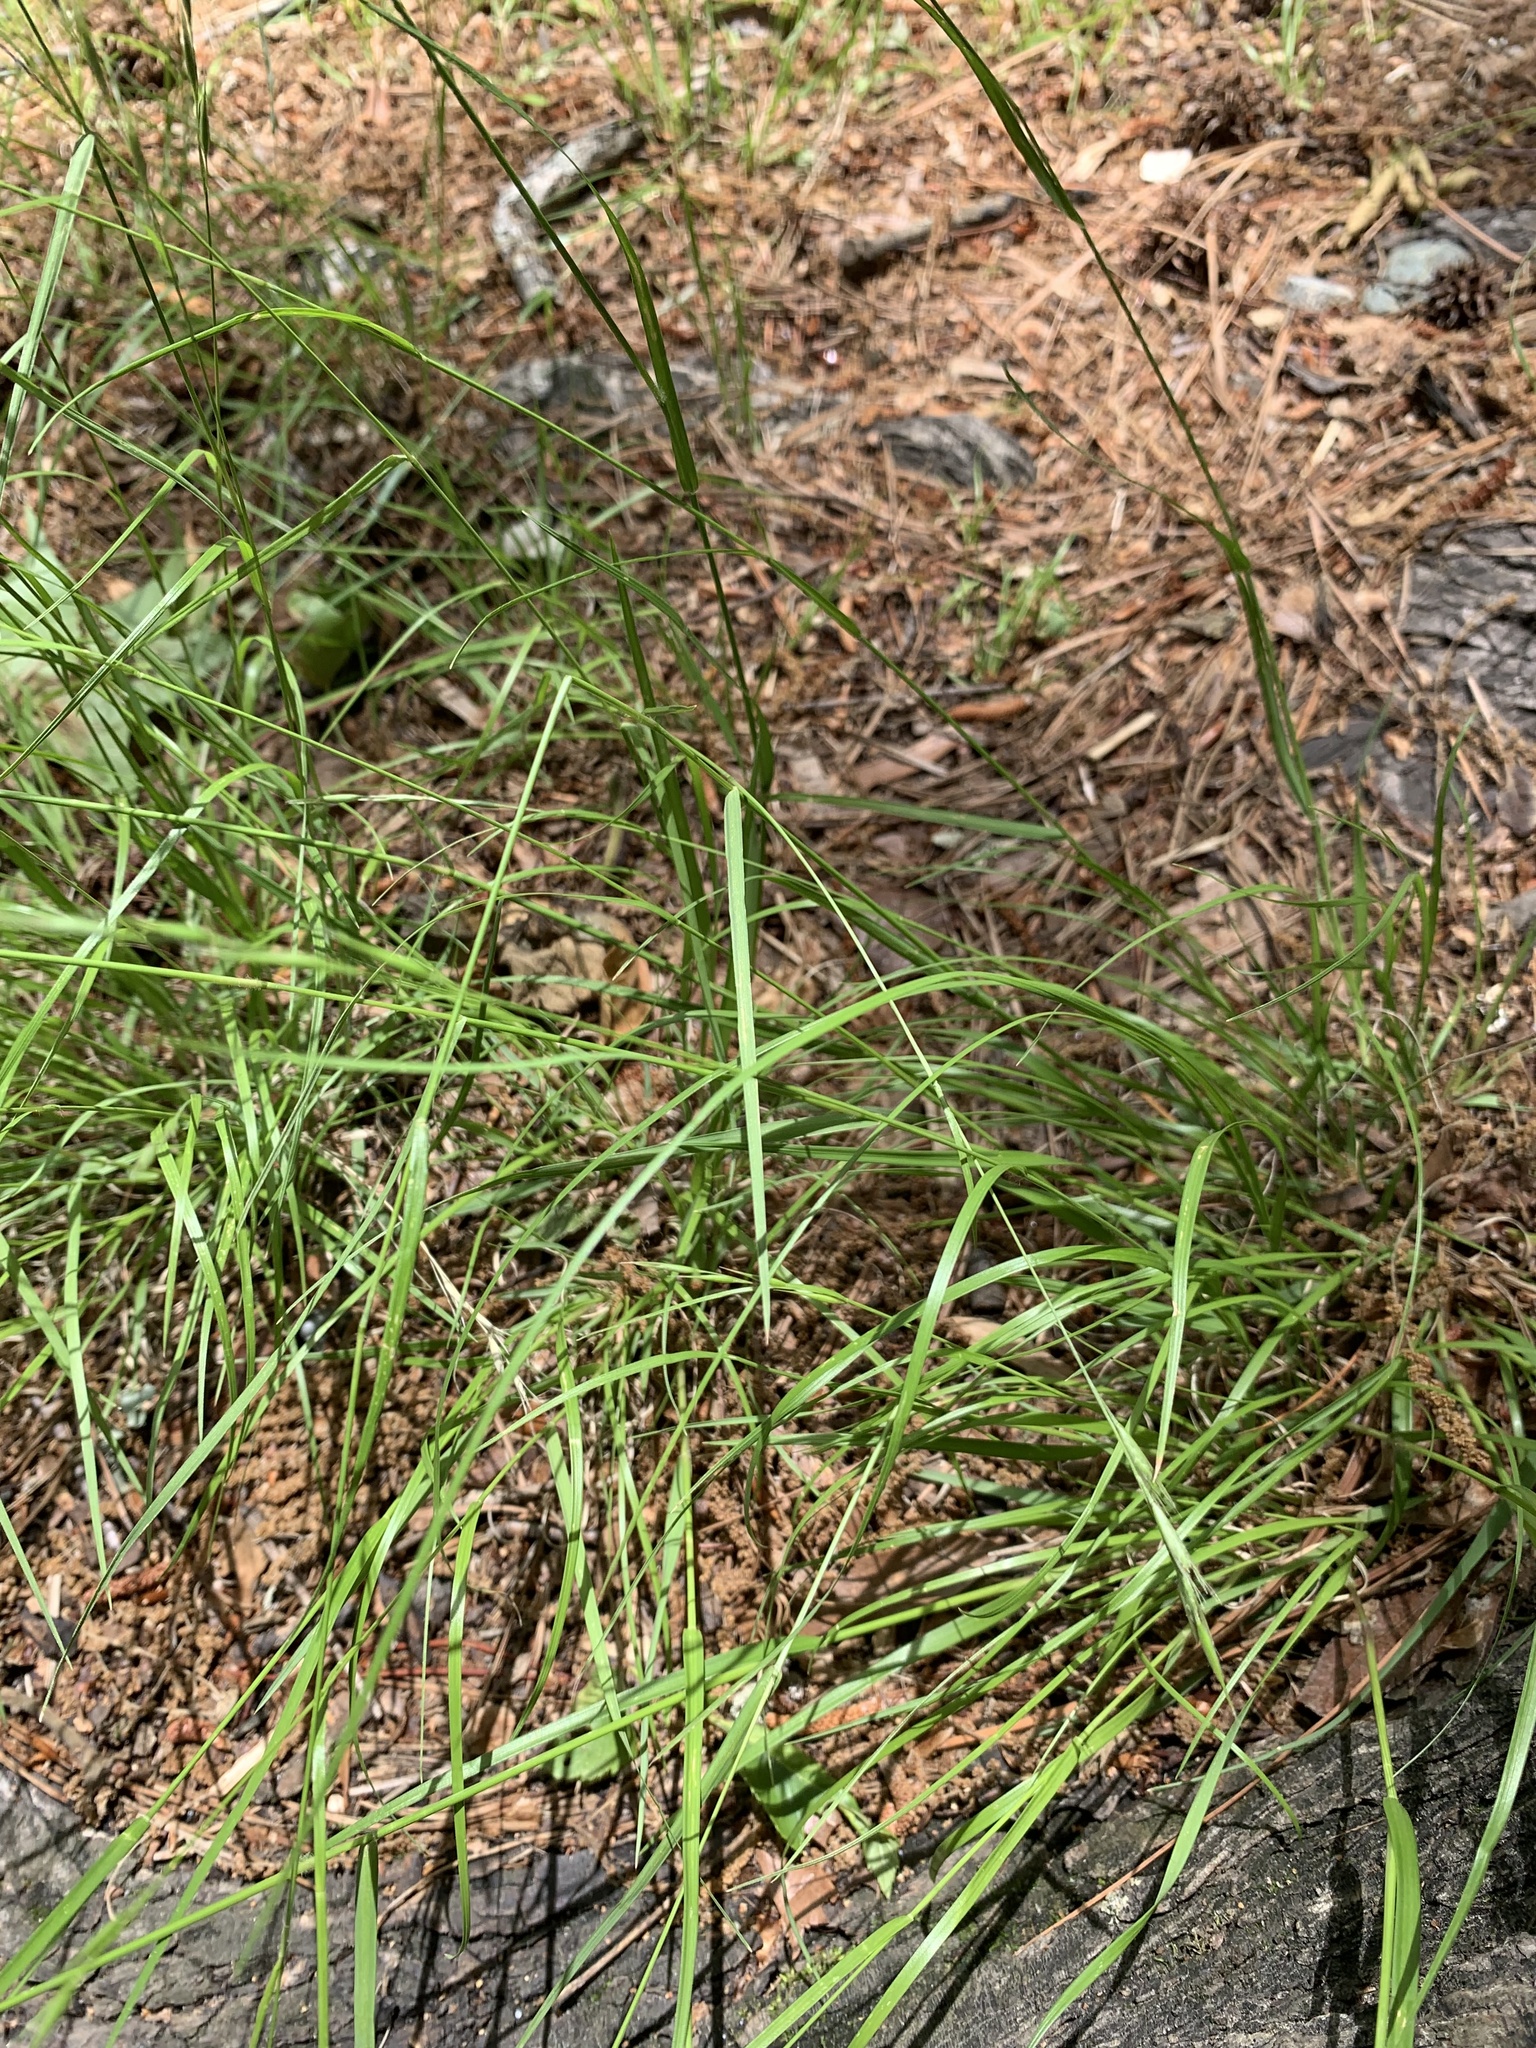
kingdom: Plantae
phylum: Tracheophyta
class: Liliopsida
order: Poales
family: Poaceae
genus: Danthonia
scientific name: Danthonia sericea
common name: Downy danthonia
